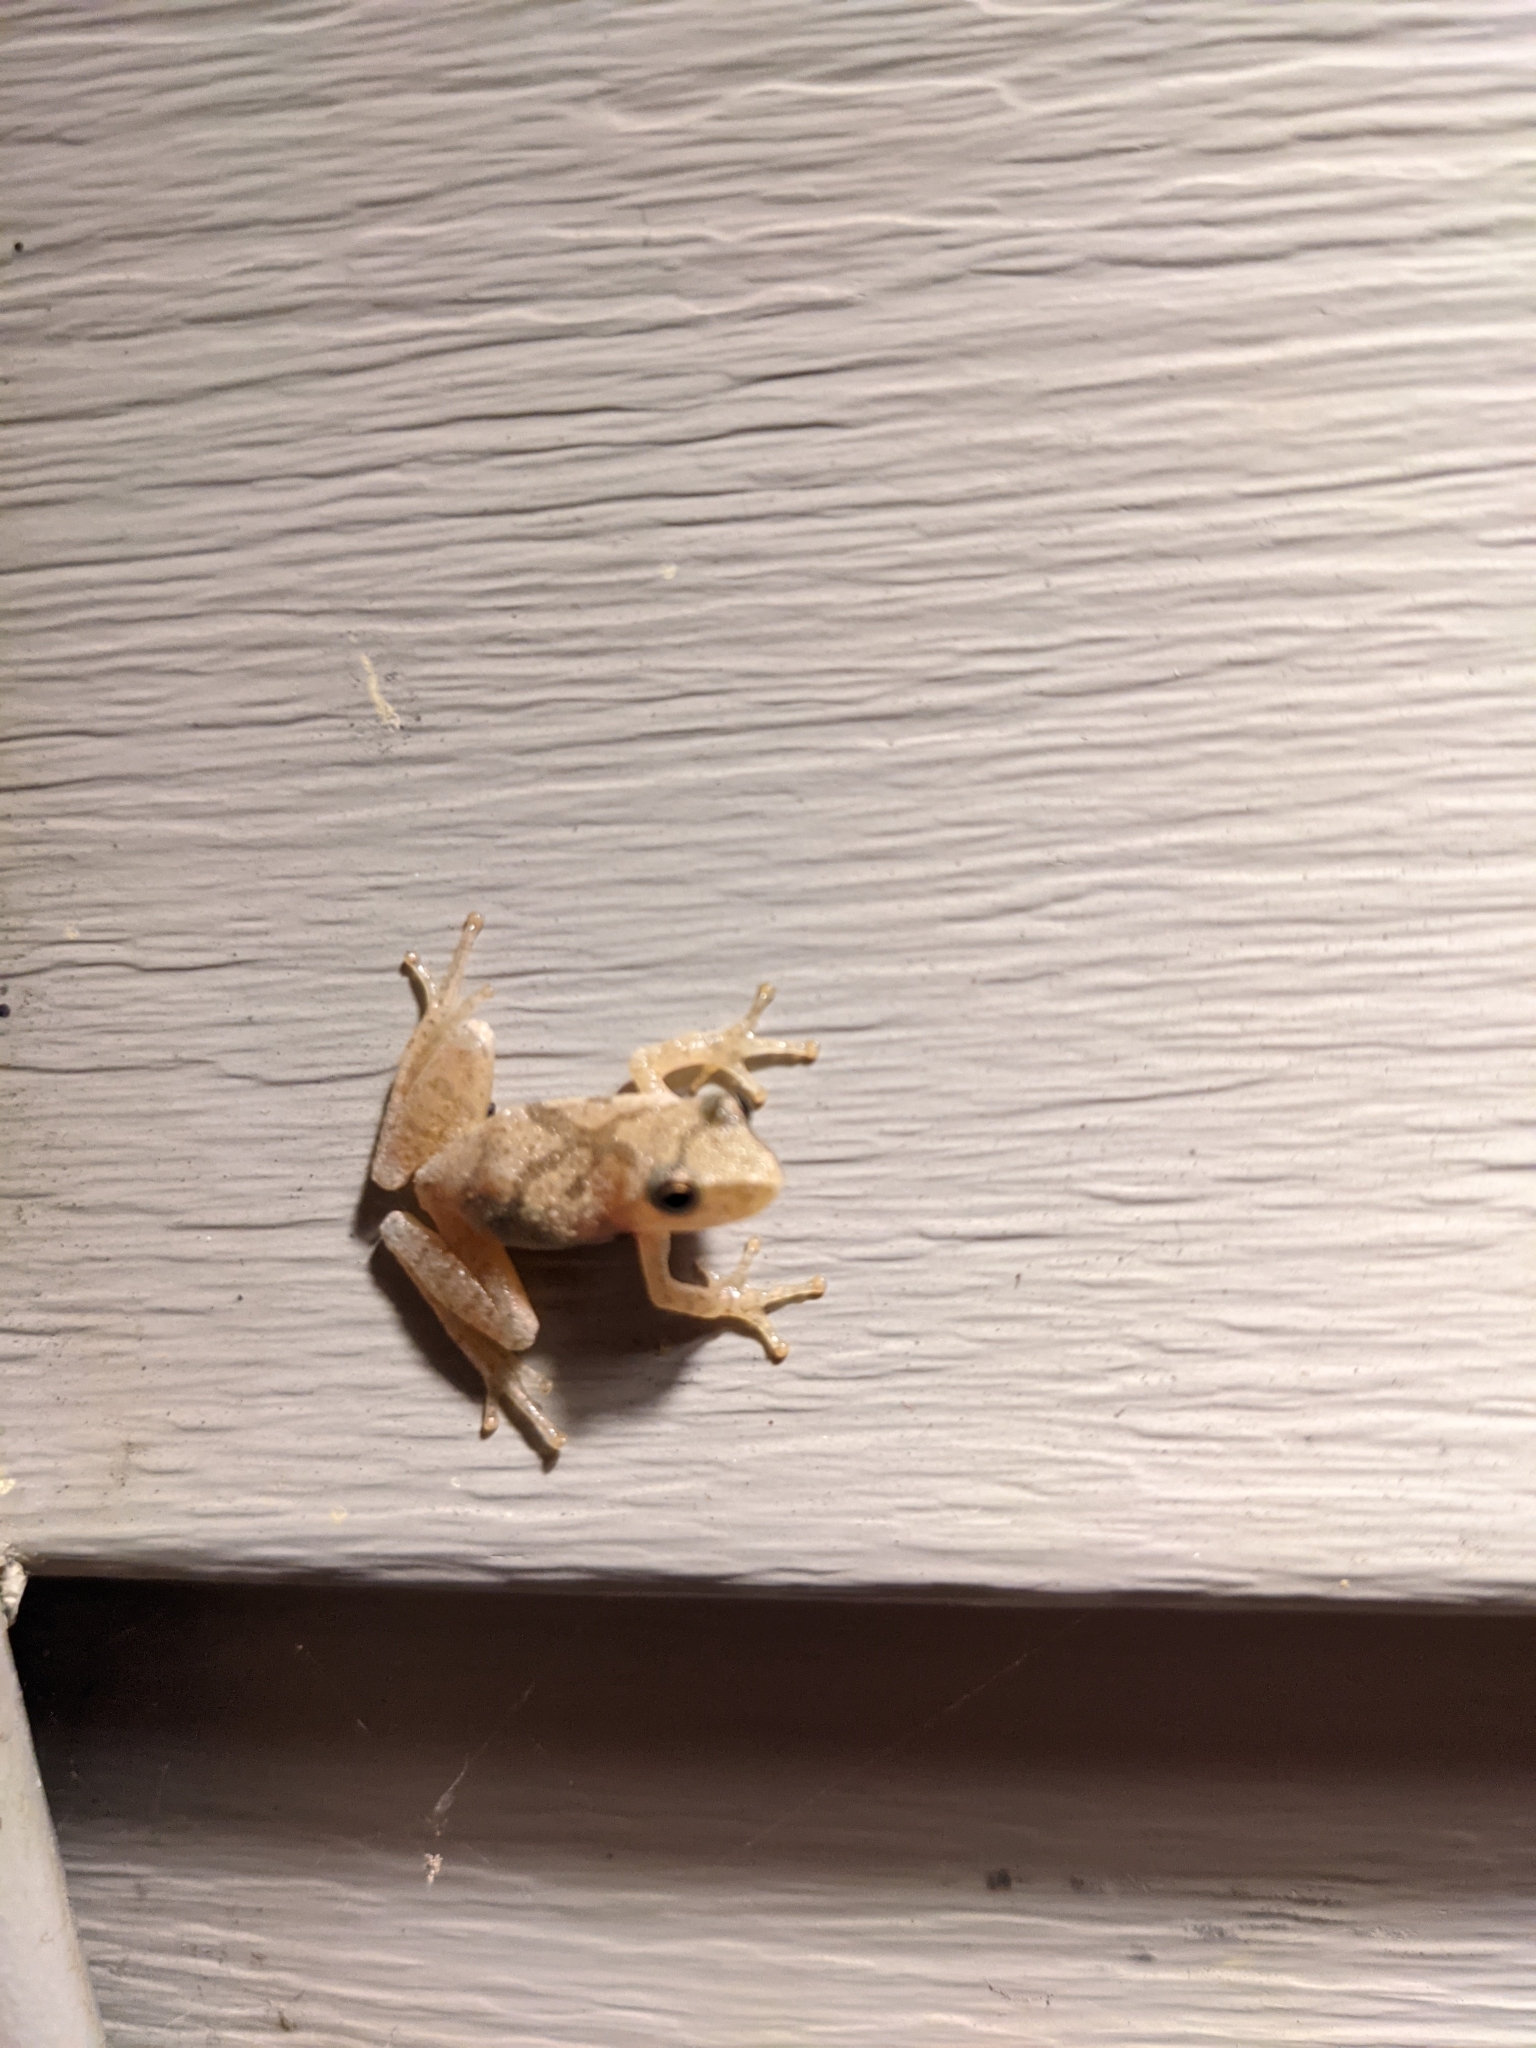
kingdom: Animalia
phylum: Chordata
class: Amphibia
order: Anura
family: Hylidae
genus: Pseudacris
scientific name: Pseudacris crucifer
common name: Spring peeper
